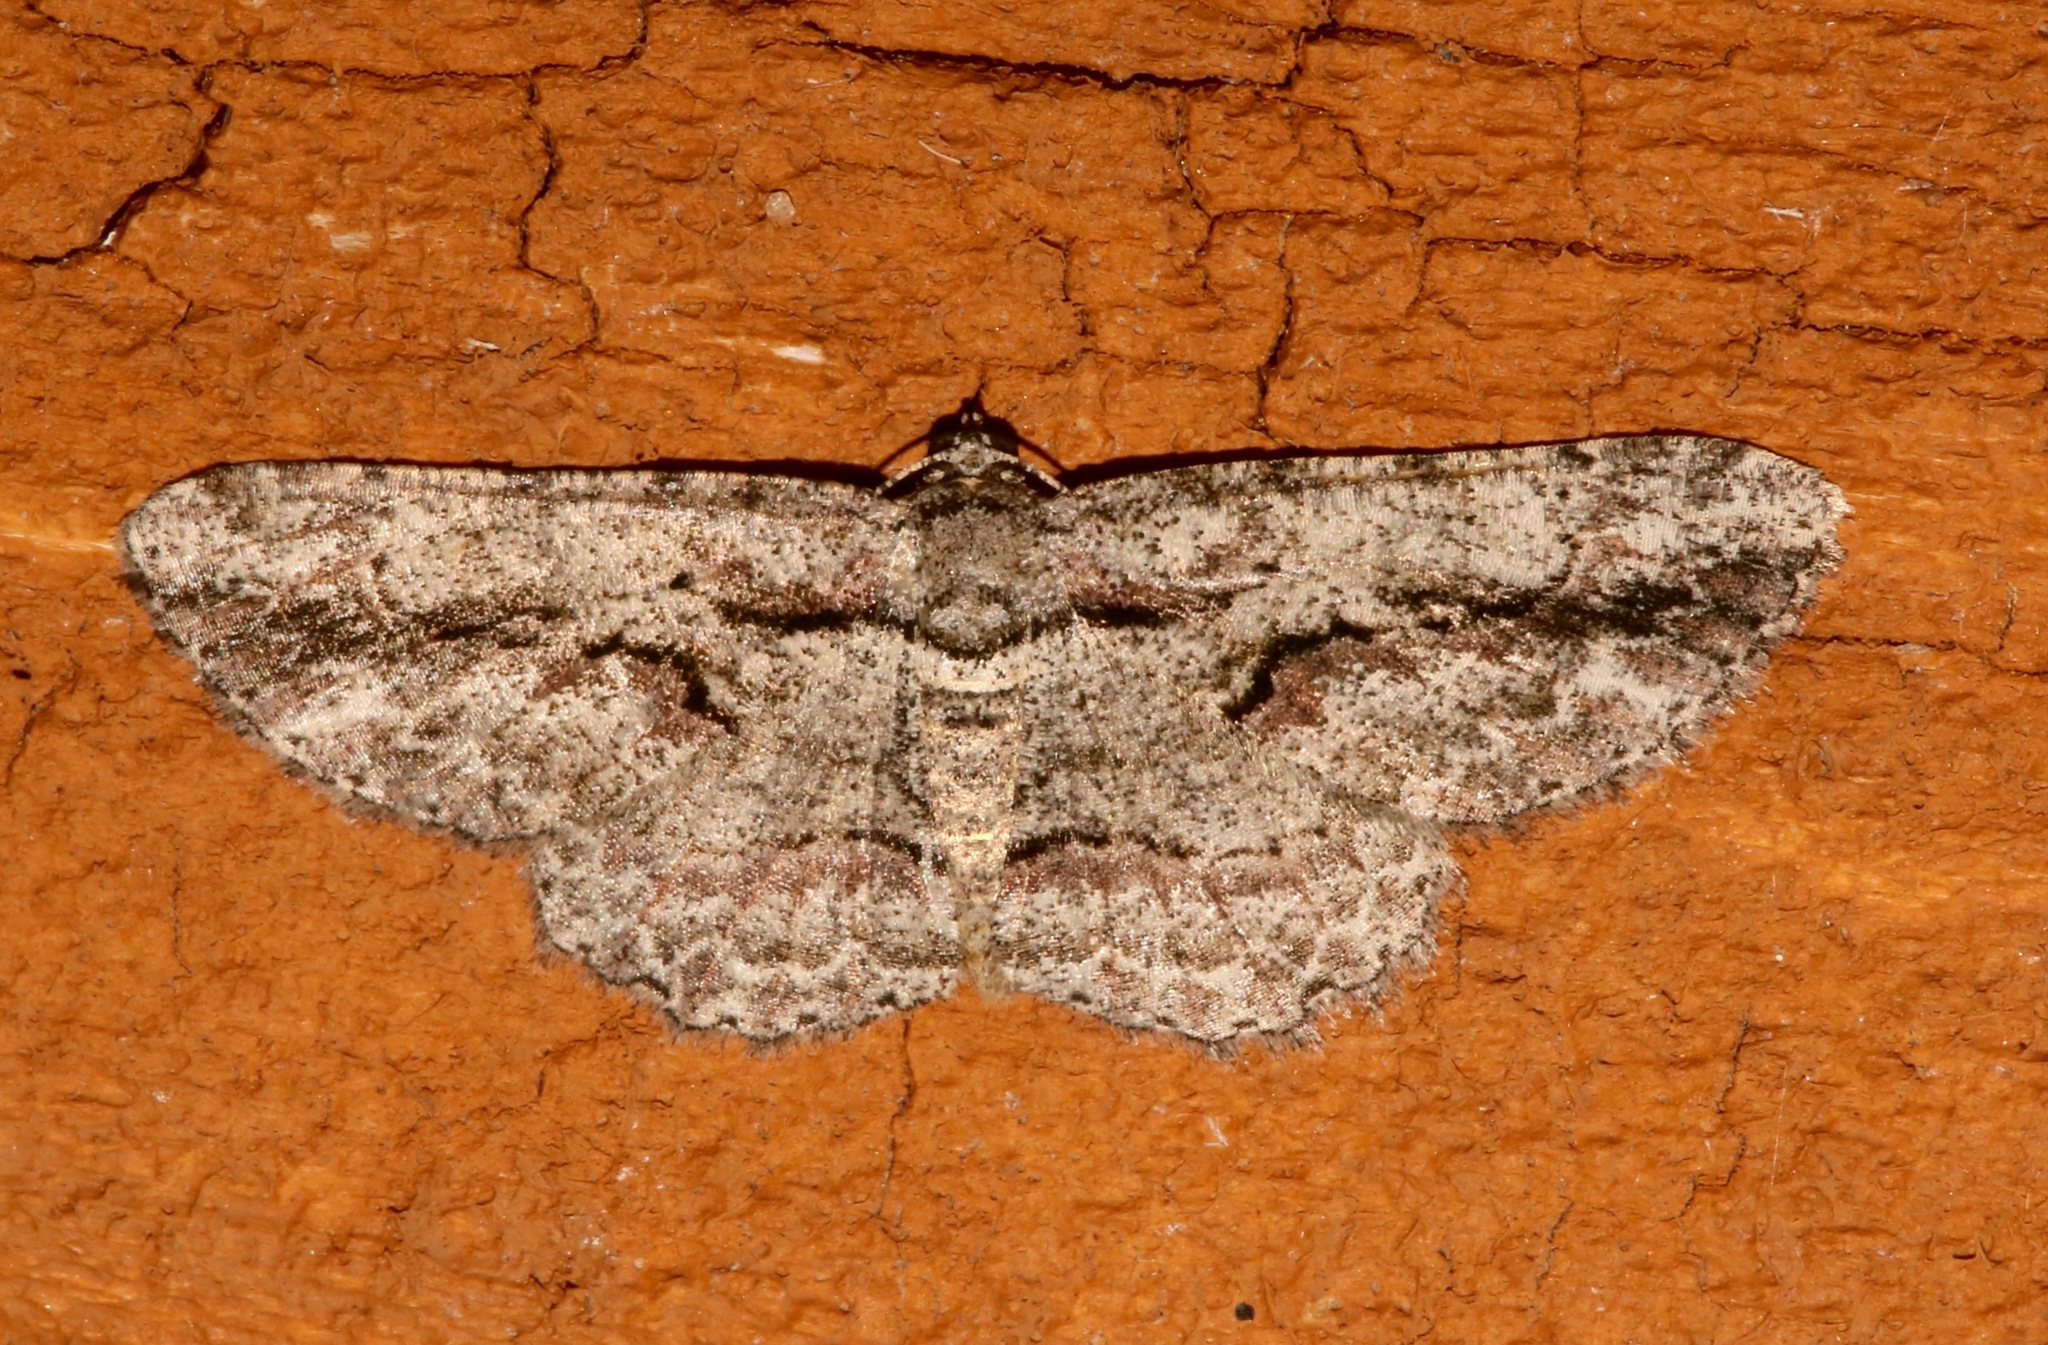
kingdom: Animalia
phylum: Arthropoda
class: Insecta
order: Lepidoptera
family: Geometridae
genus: Anavitrinella
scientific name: Anavitrinella pampinaria
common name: Common gray
